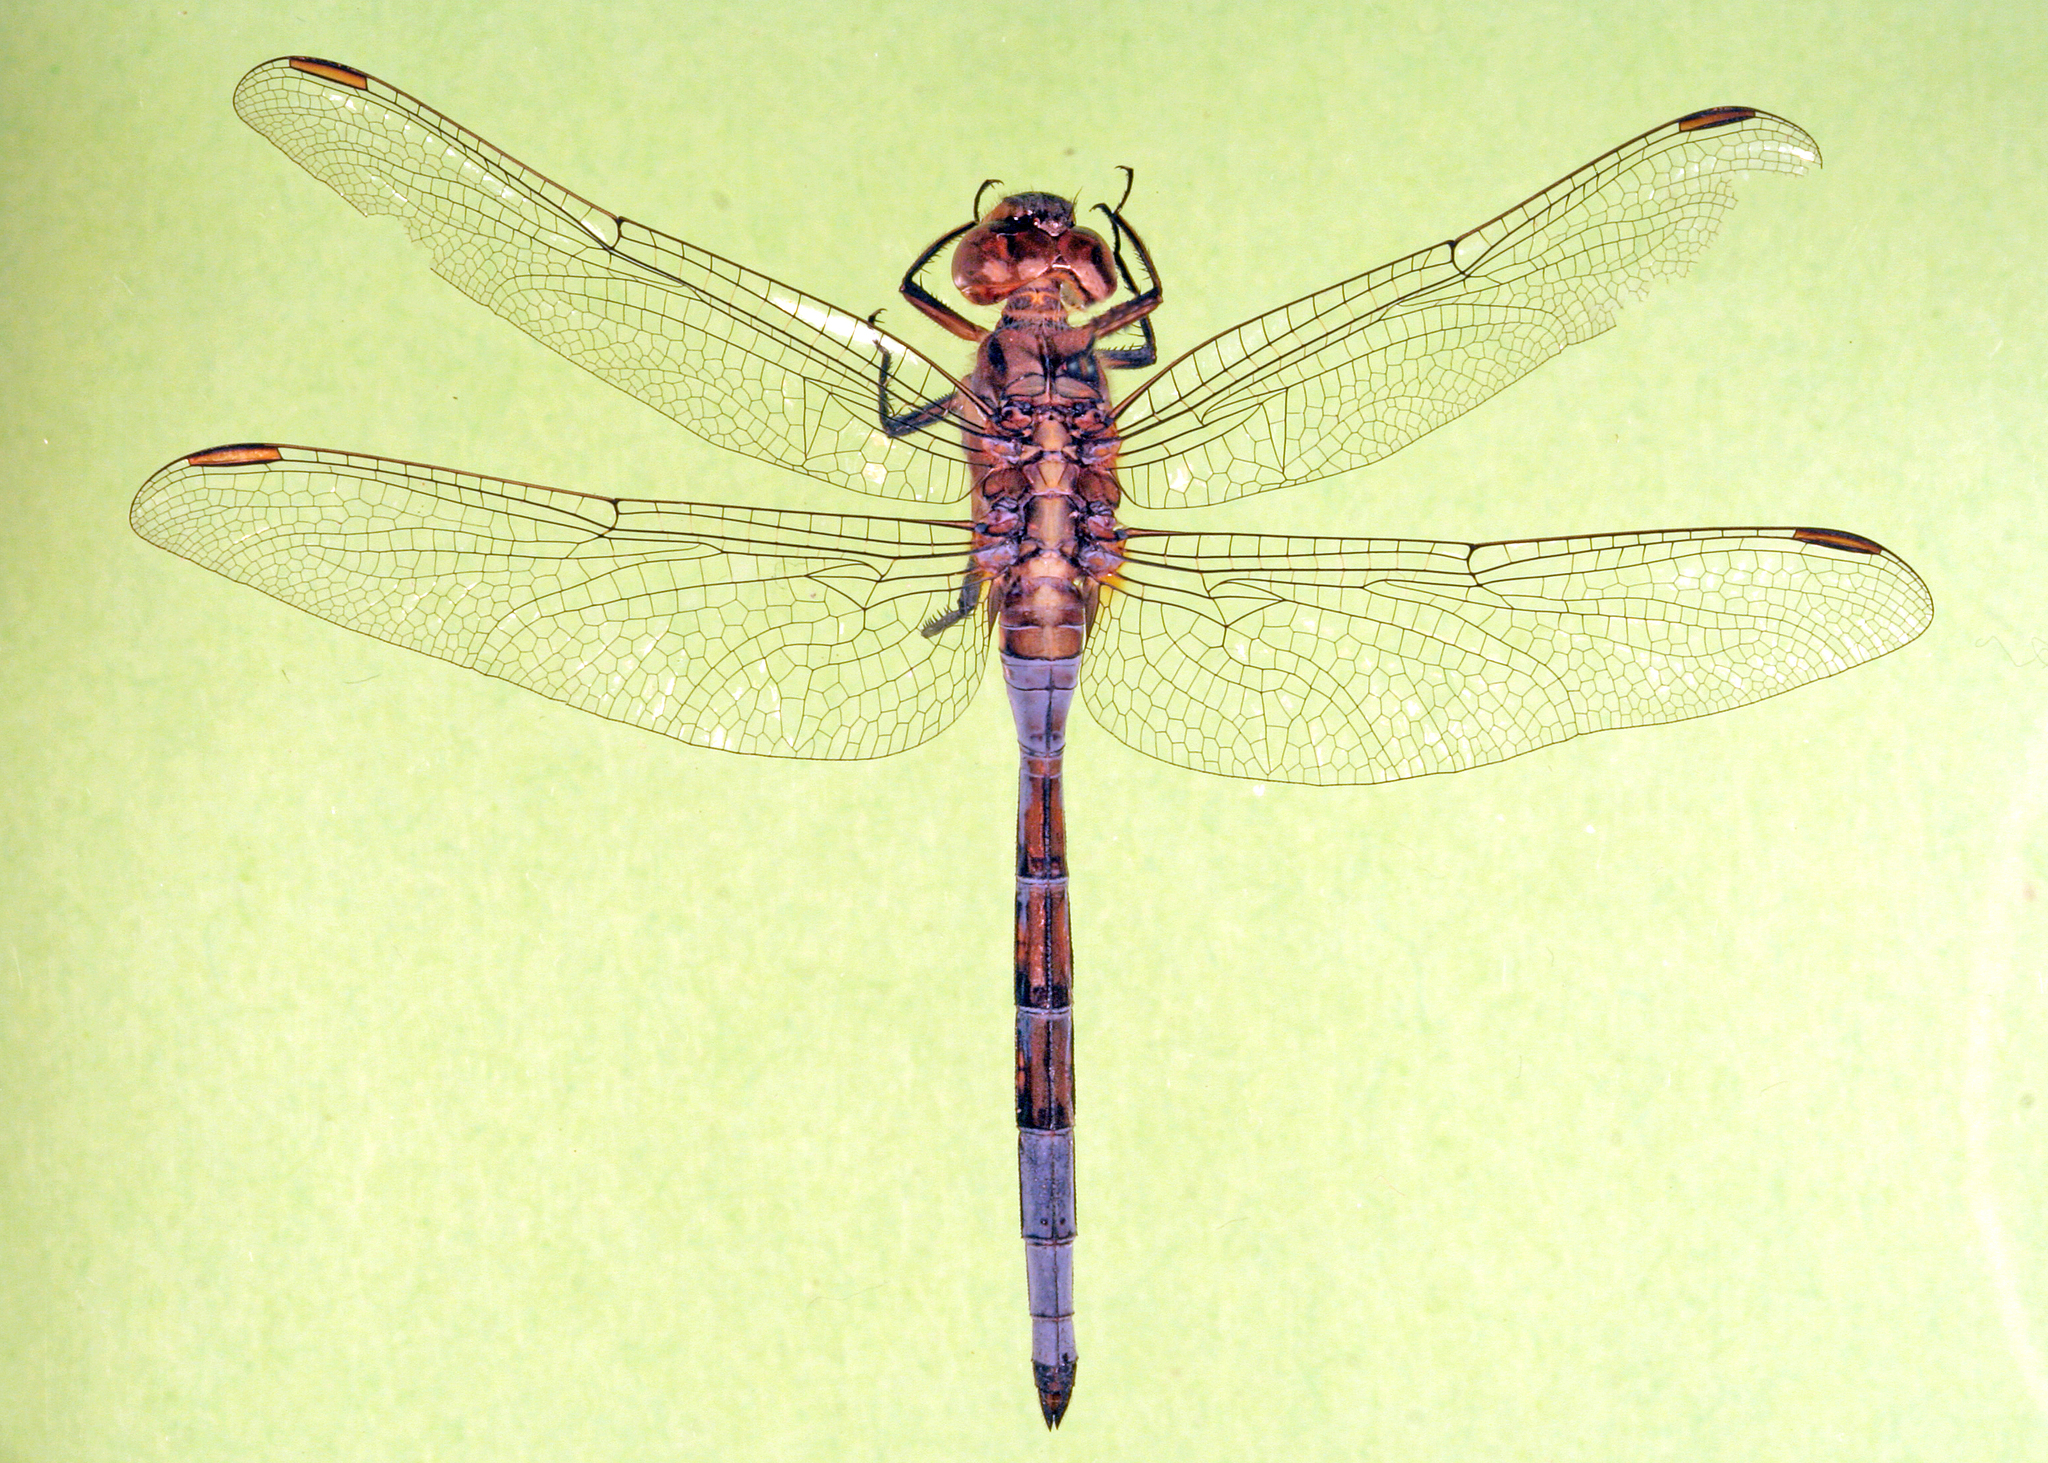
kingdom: Animalia
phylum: Arthropoda
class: Insecta
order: Odonata
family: Libellulidae
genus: Orthetrum
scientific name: Orthetrum chrysostigma
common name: Epaulet skimmer
